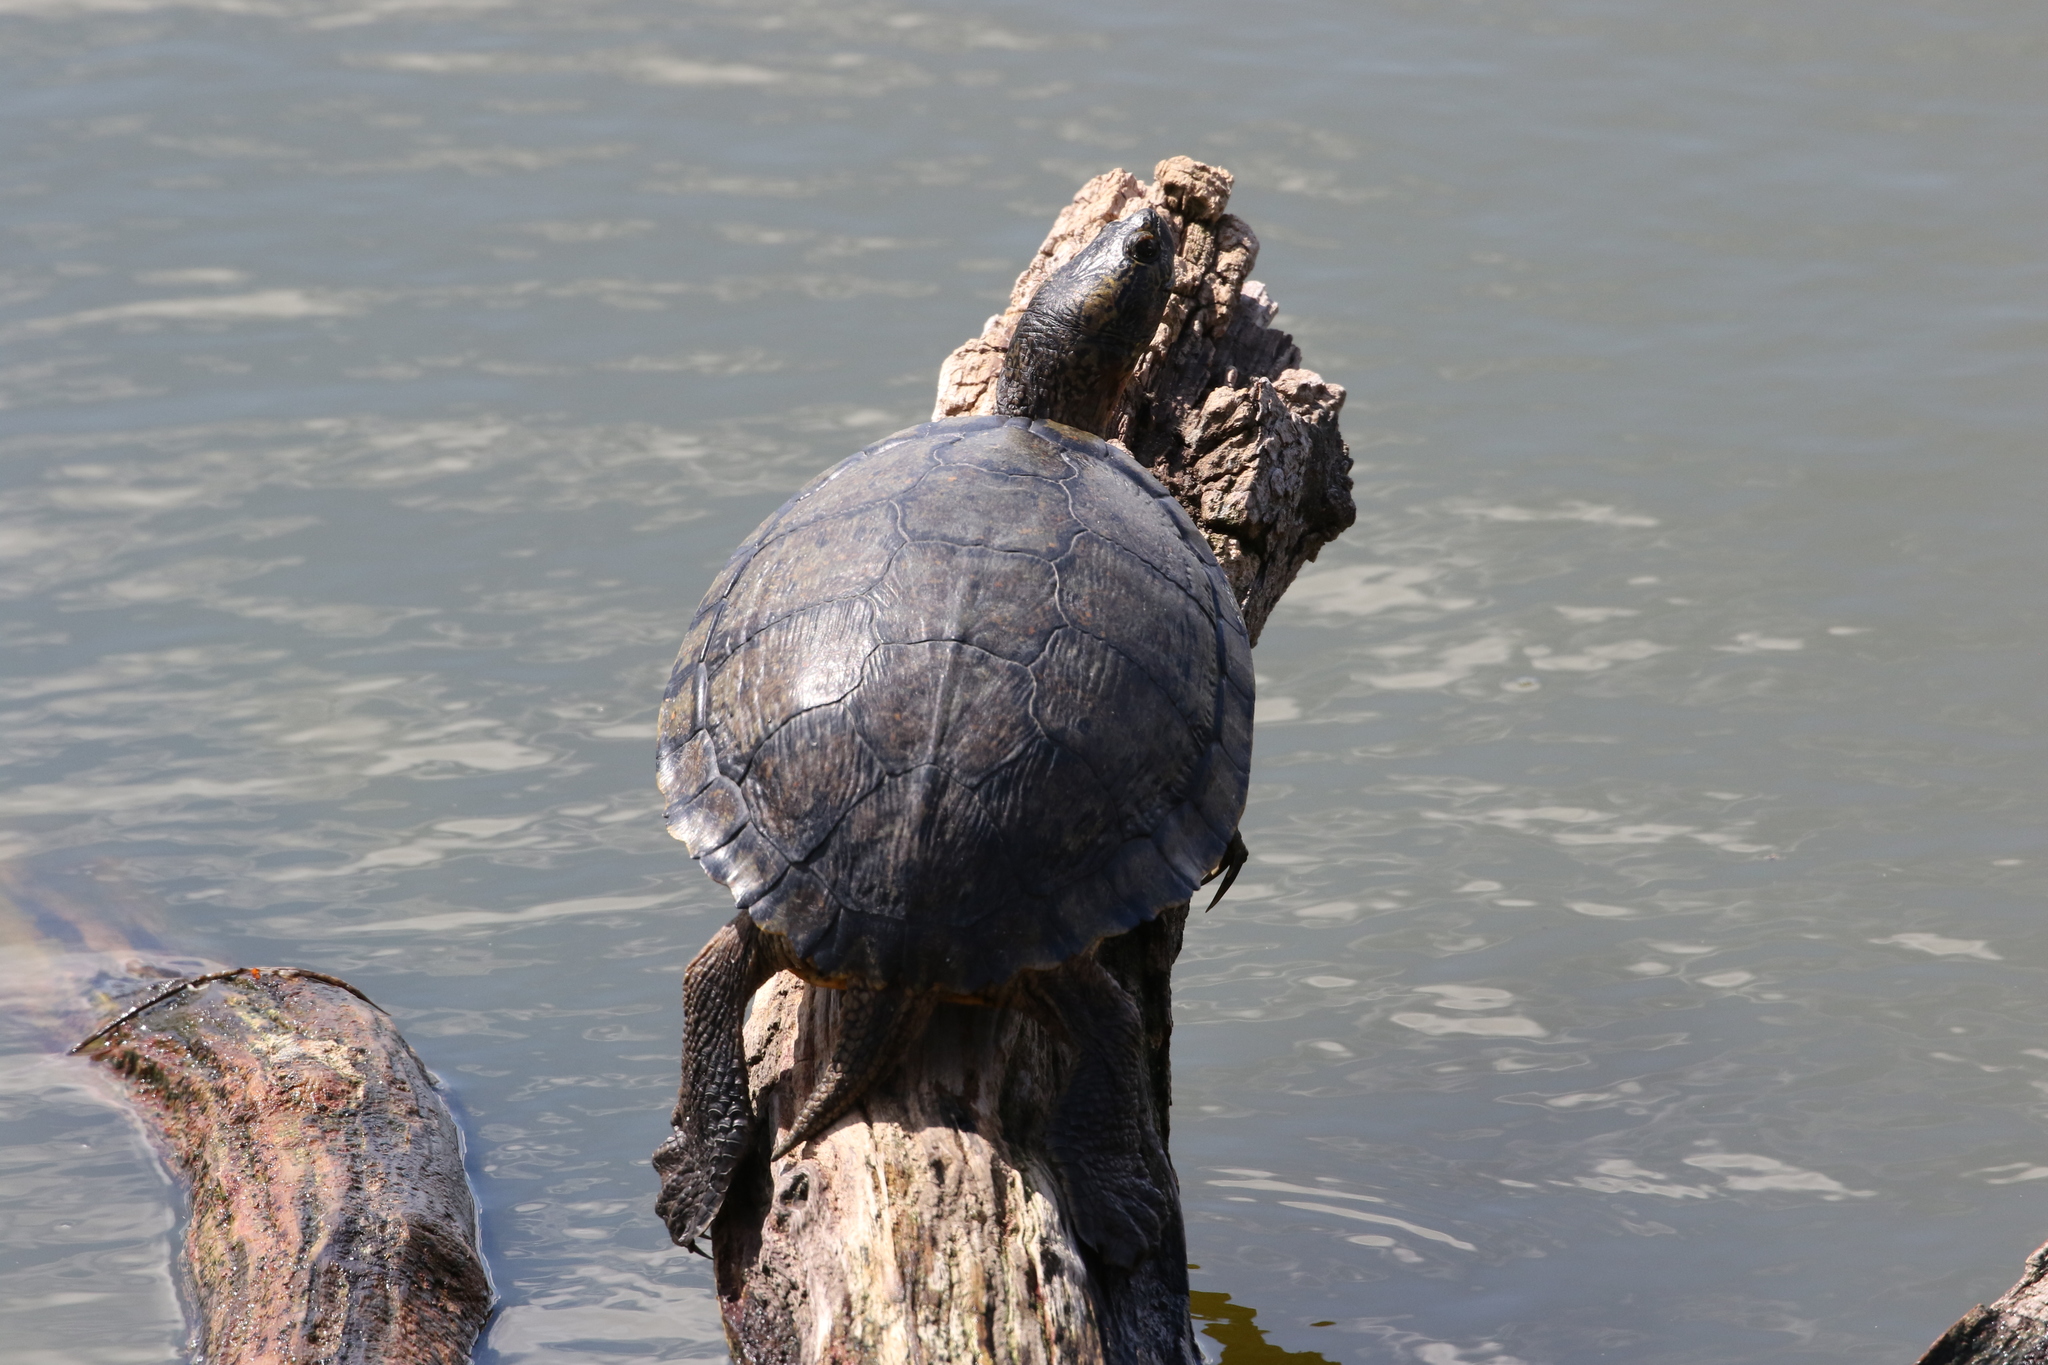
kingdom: Animalia
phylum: Chordata
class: Testudines
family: Emydidae
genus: Trachemys
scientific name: Trachemys scripta
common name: Slider
